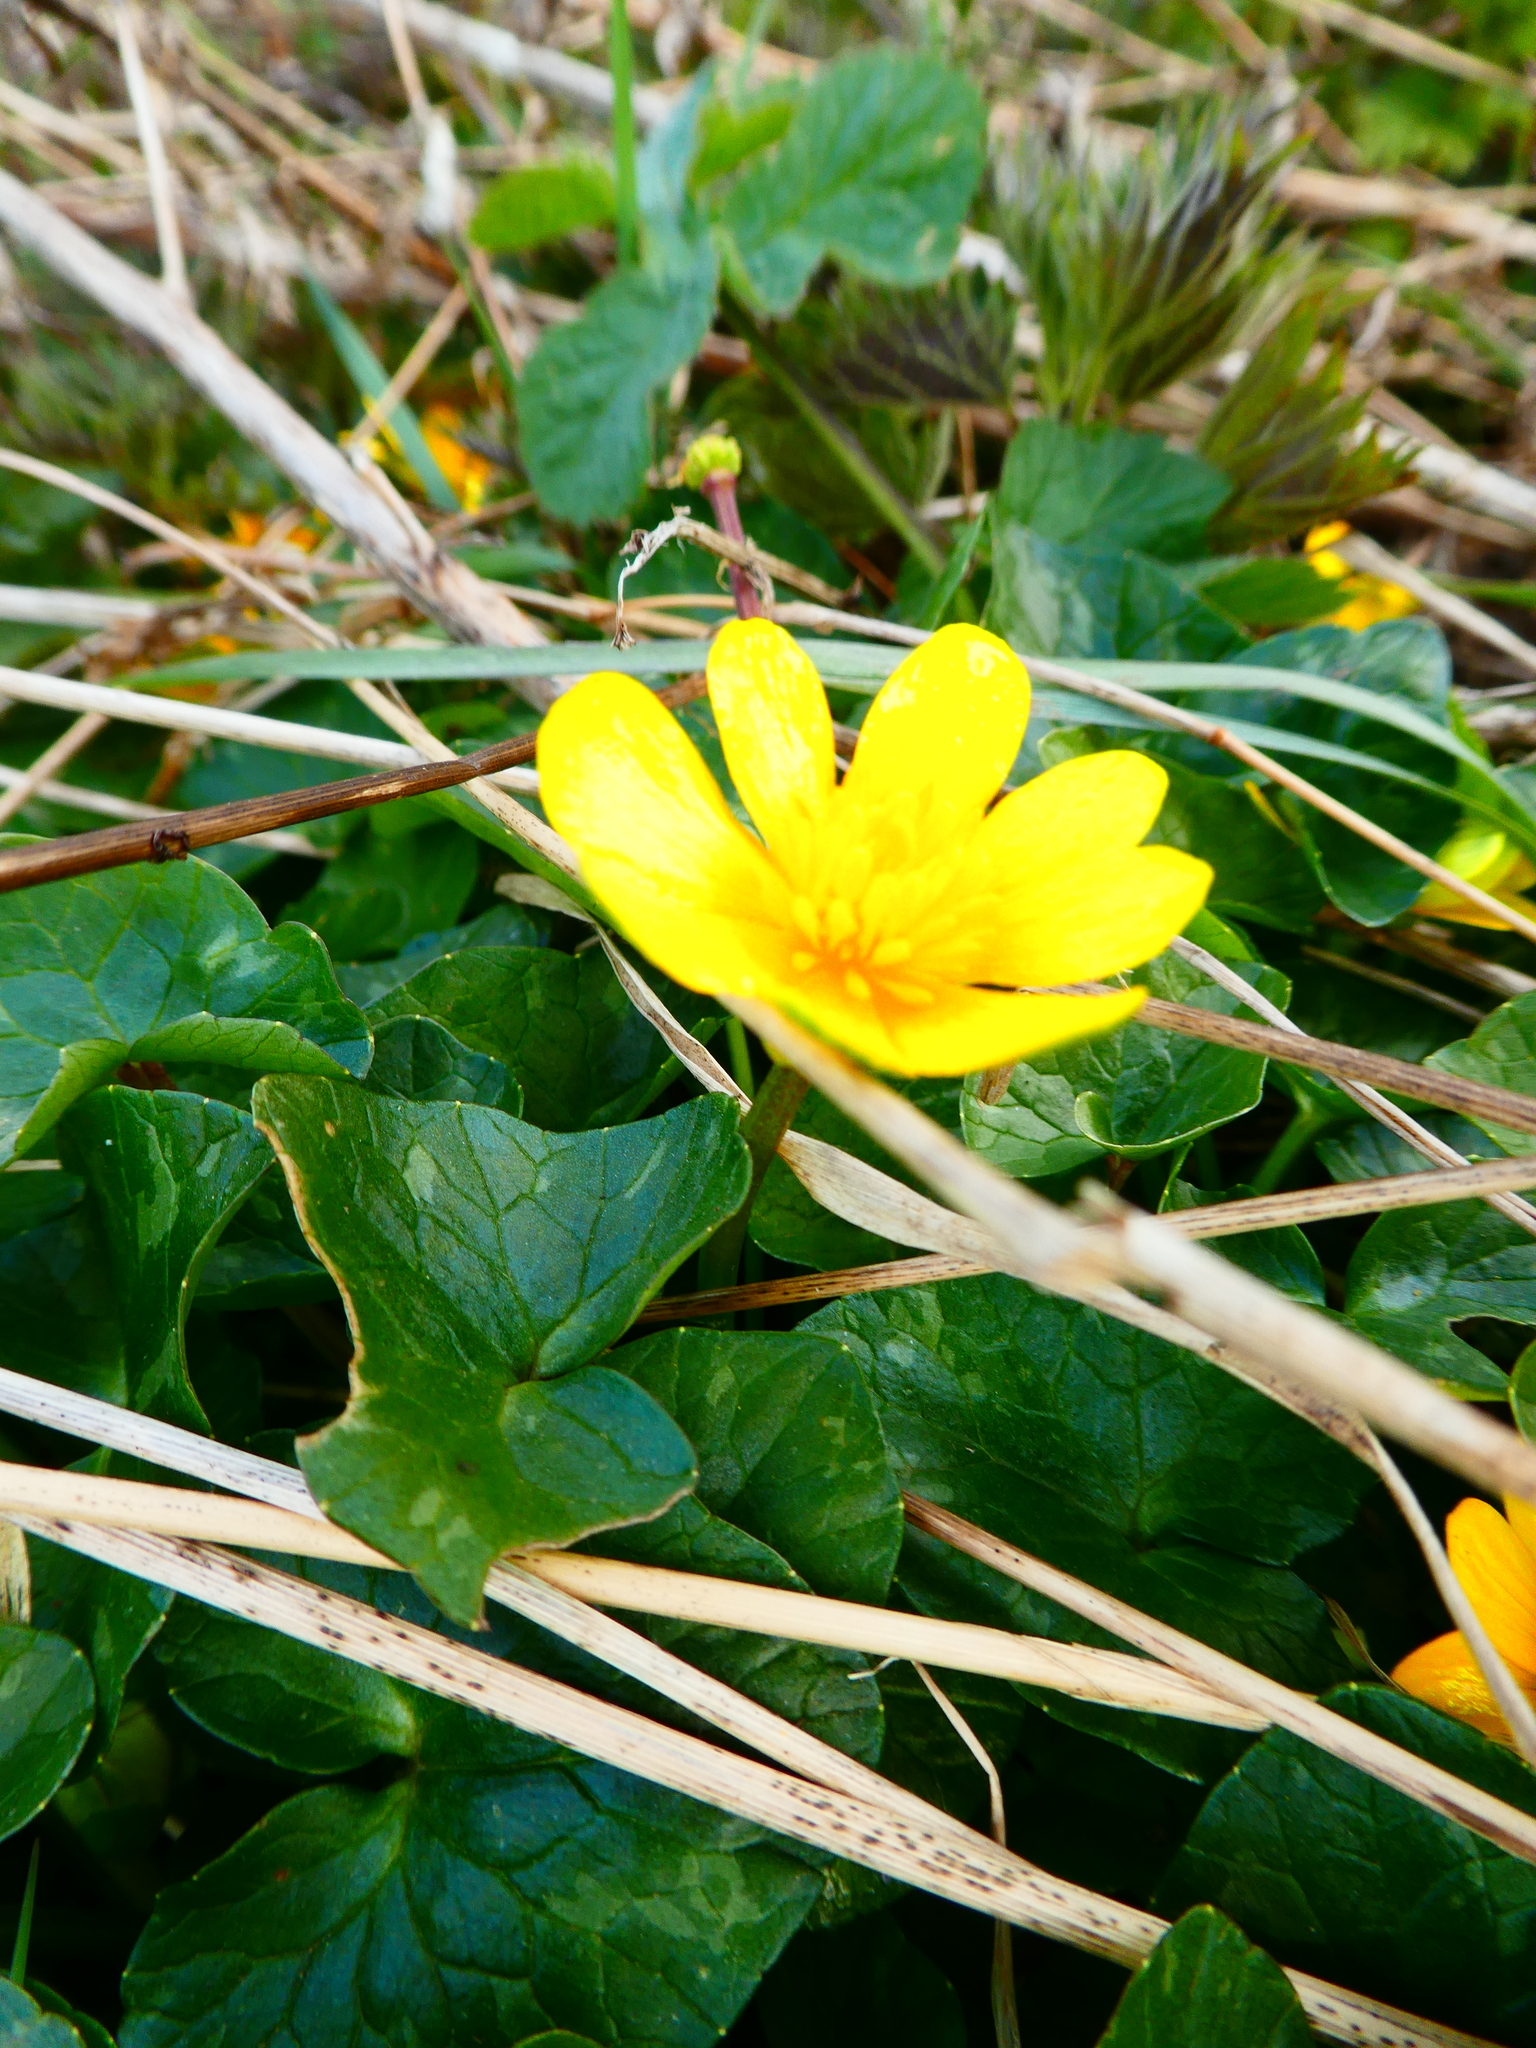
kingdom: Plantae
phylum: Tracheophyta
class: Magnoliopsida
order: Ranunculales
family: Ranunculaceae
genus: Ficaria
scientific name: Ficaria verna
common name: Lesser celandine
